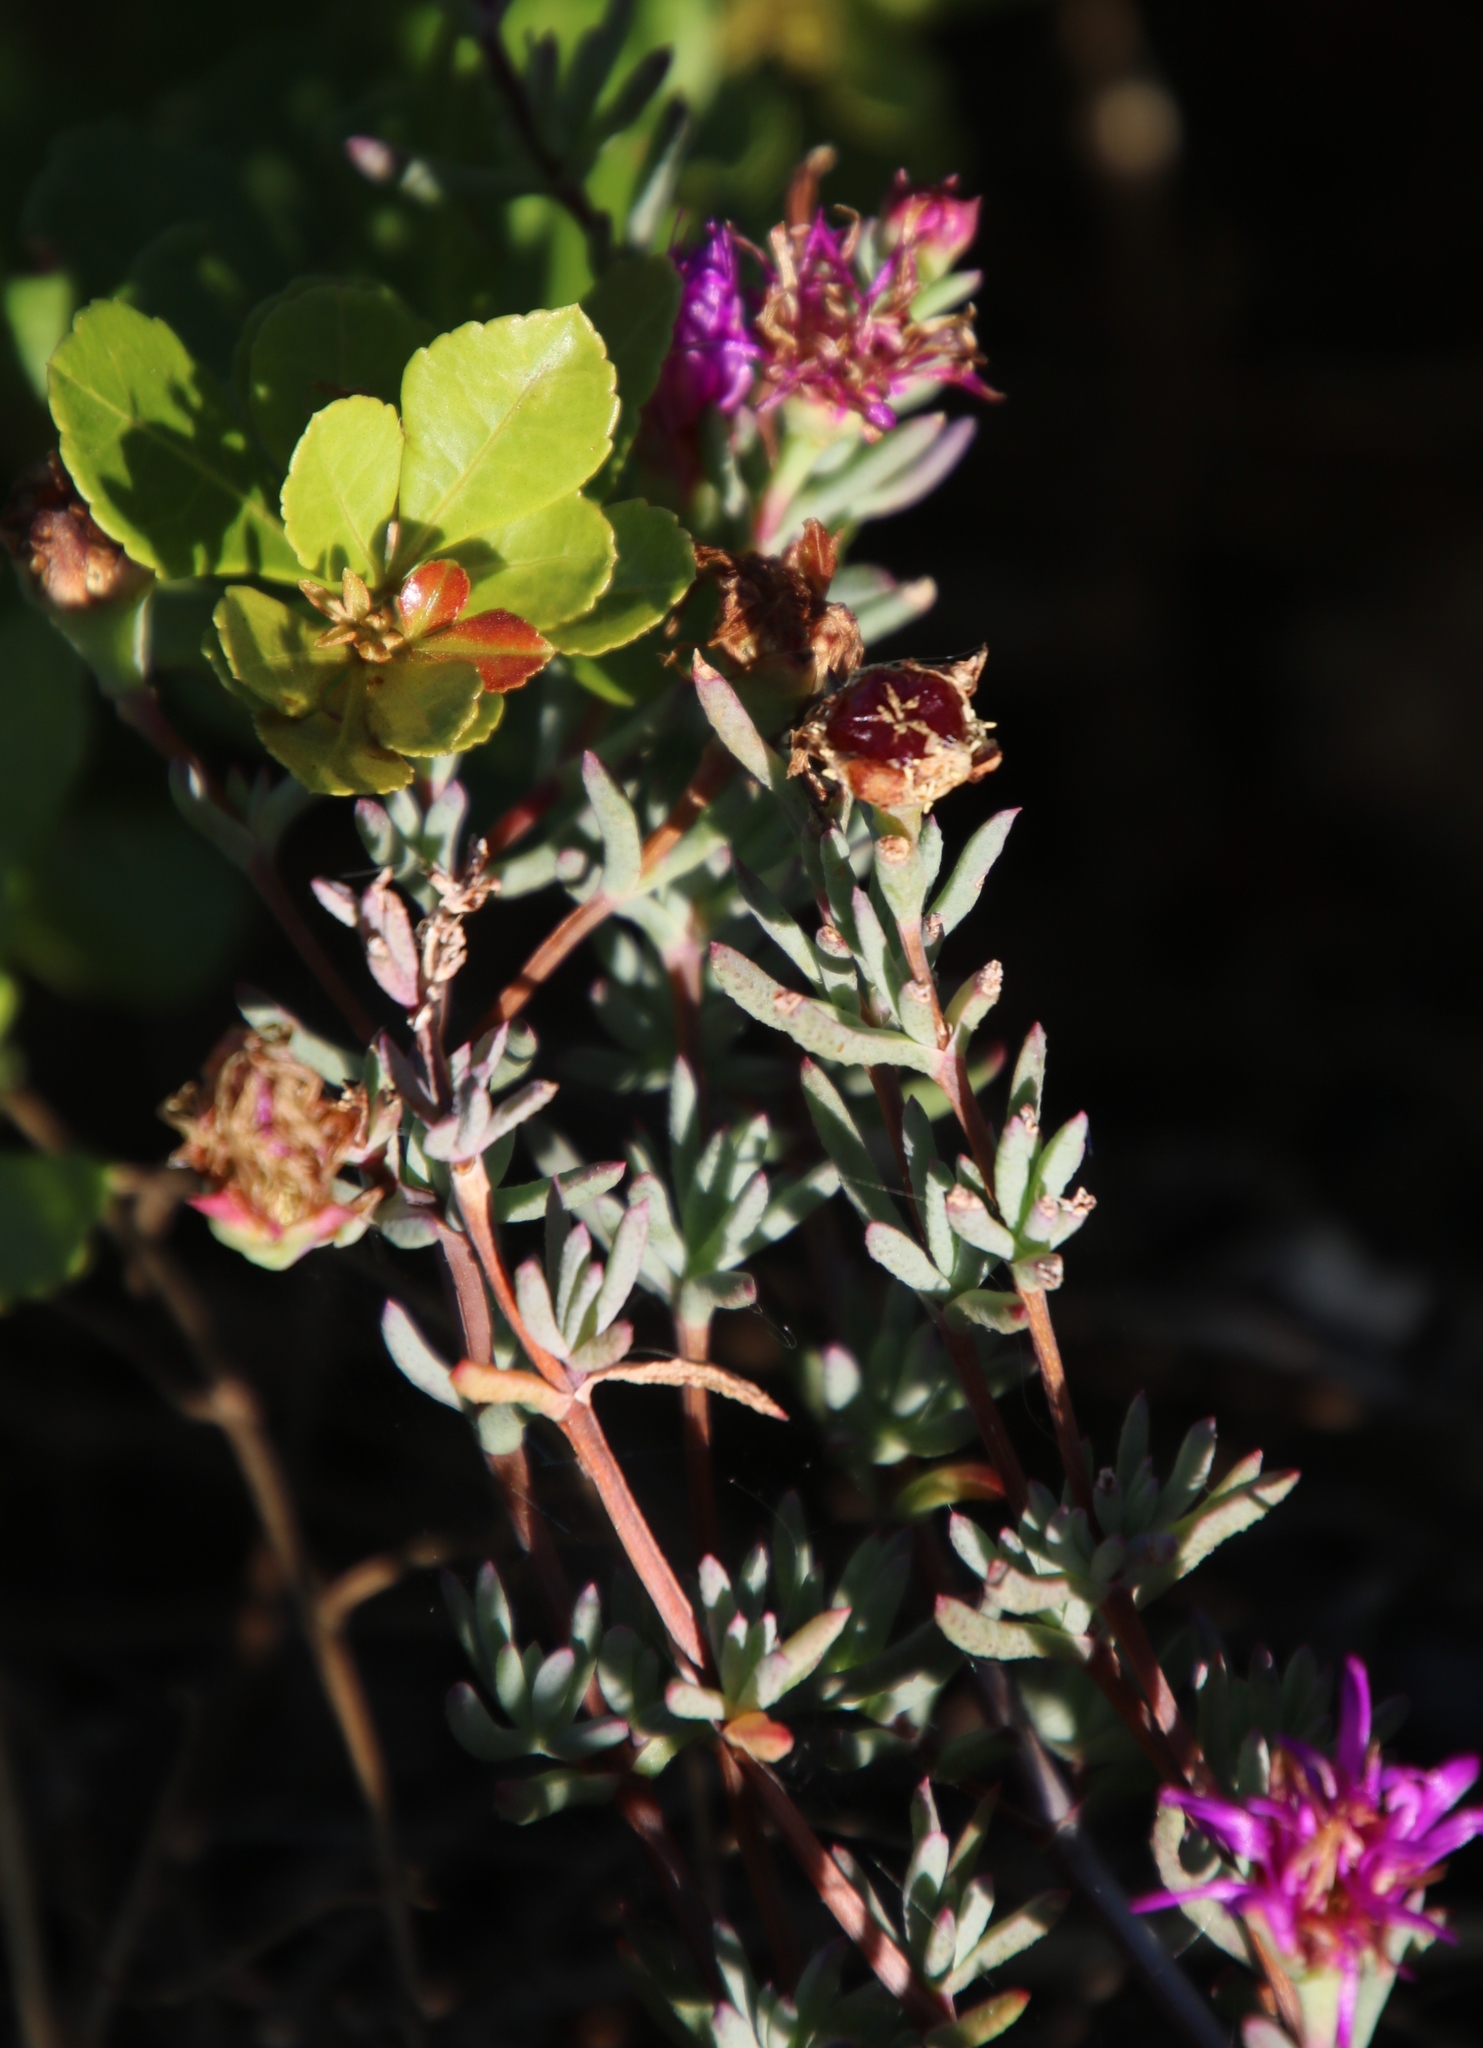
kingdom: Plantae
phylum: Tracheophyta
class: Magnoliopsida
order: Caryophyllales
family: Aizoaceae
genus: Lampranthus
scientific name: Lampranthus emarginatus
